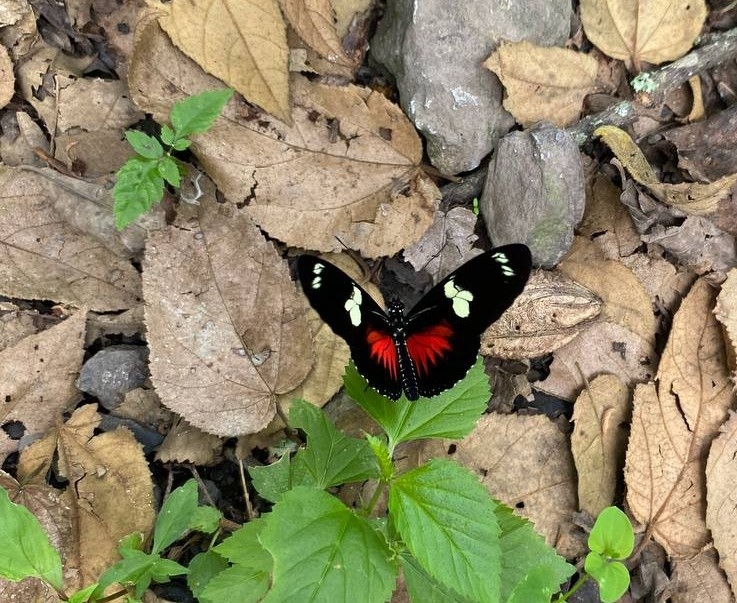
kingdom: Animalia
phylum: Arthropoda
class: Insecta
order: Lepidoptera
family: Nymphalidae
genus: Heliconius
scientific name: Heliconius doris
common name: Doris longwing
